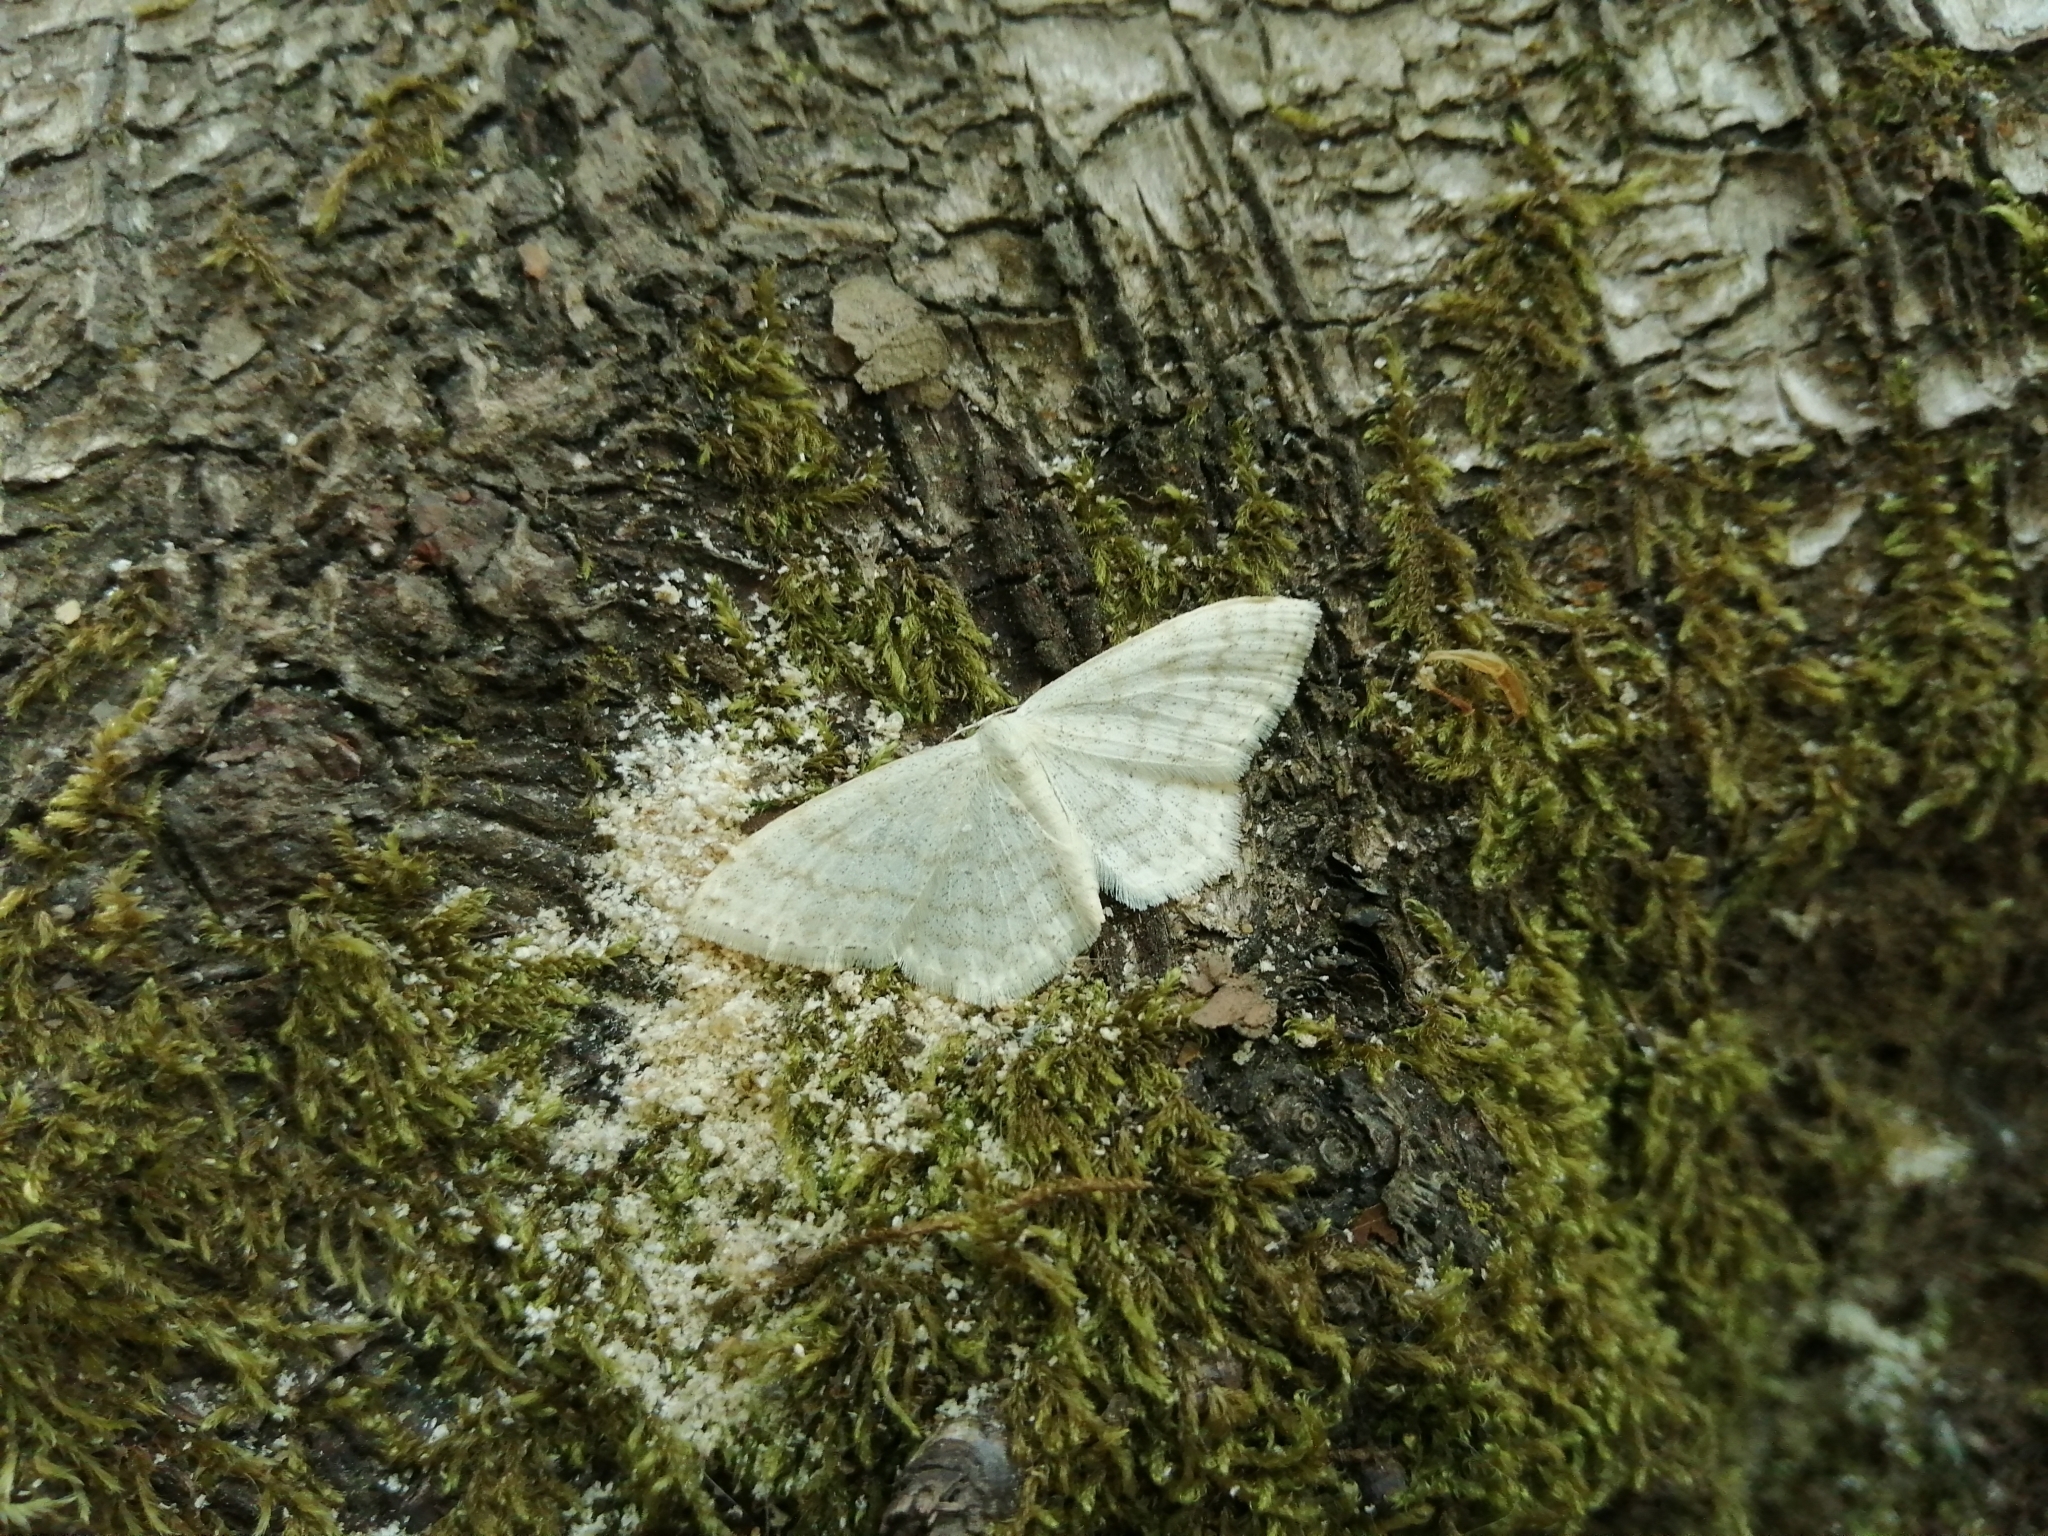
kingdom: Animalia
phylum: Arthropoda
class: Insecta
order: Lepidoptera
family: Geometridae
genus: Scopula
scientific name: Scopula floslactata
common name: Cream wave
